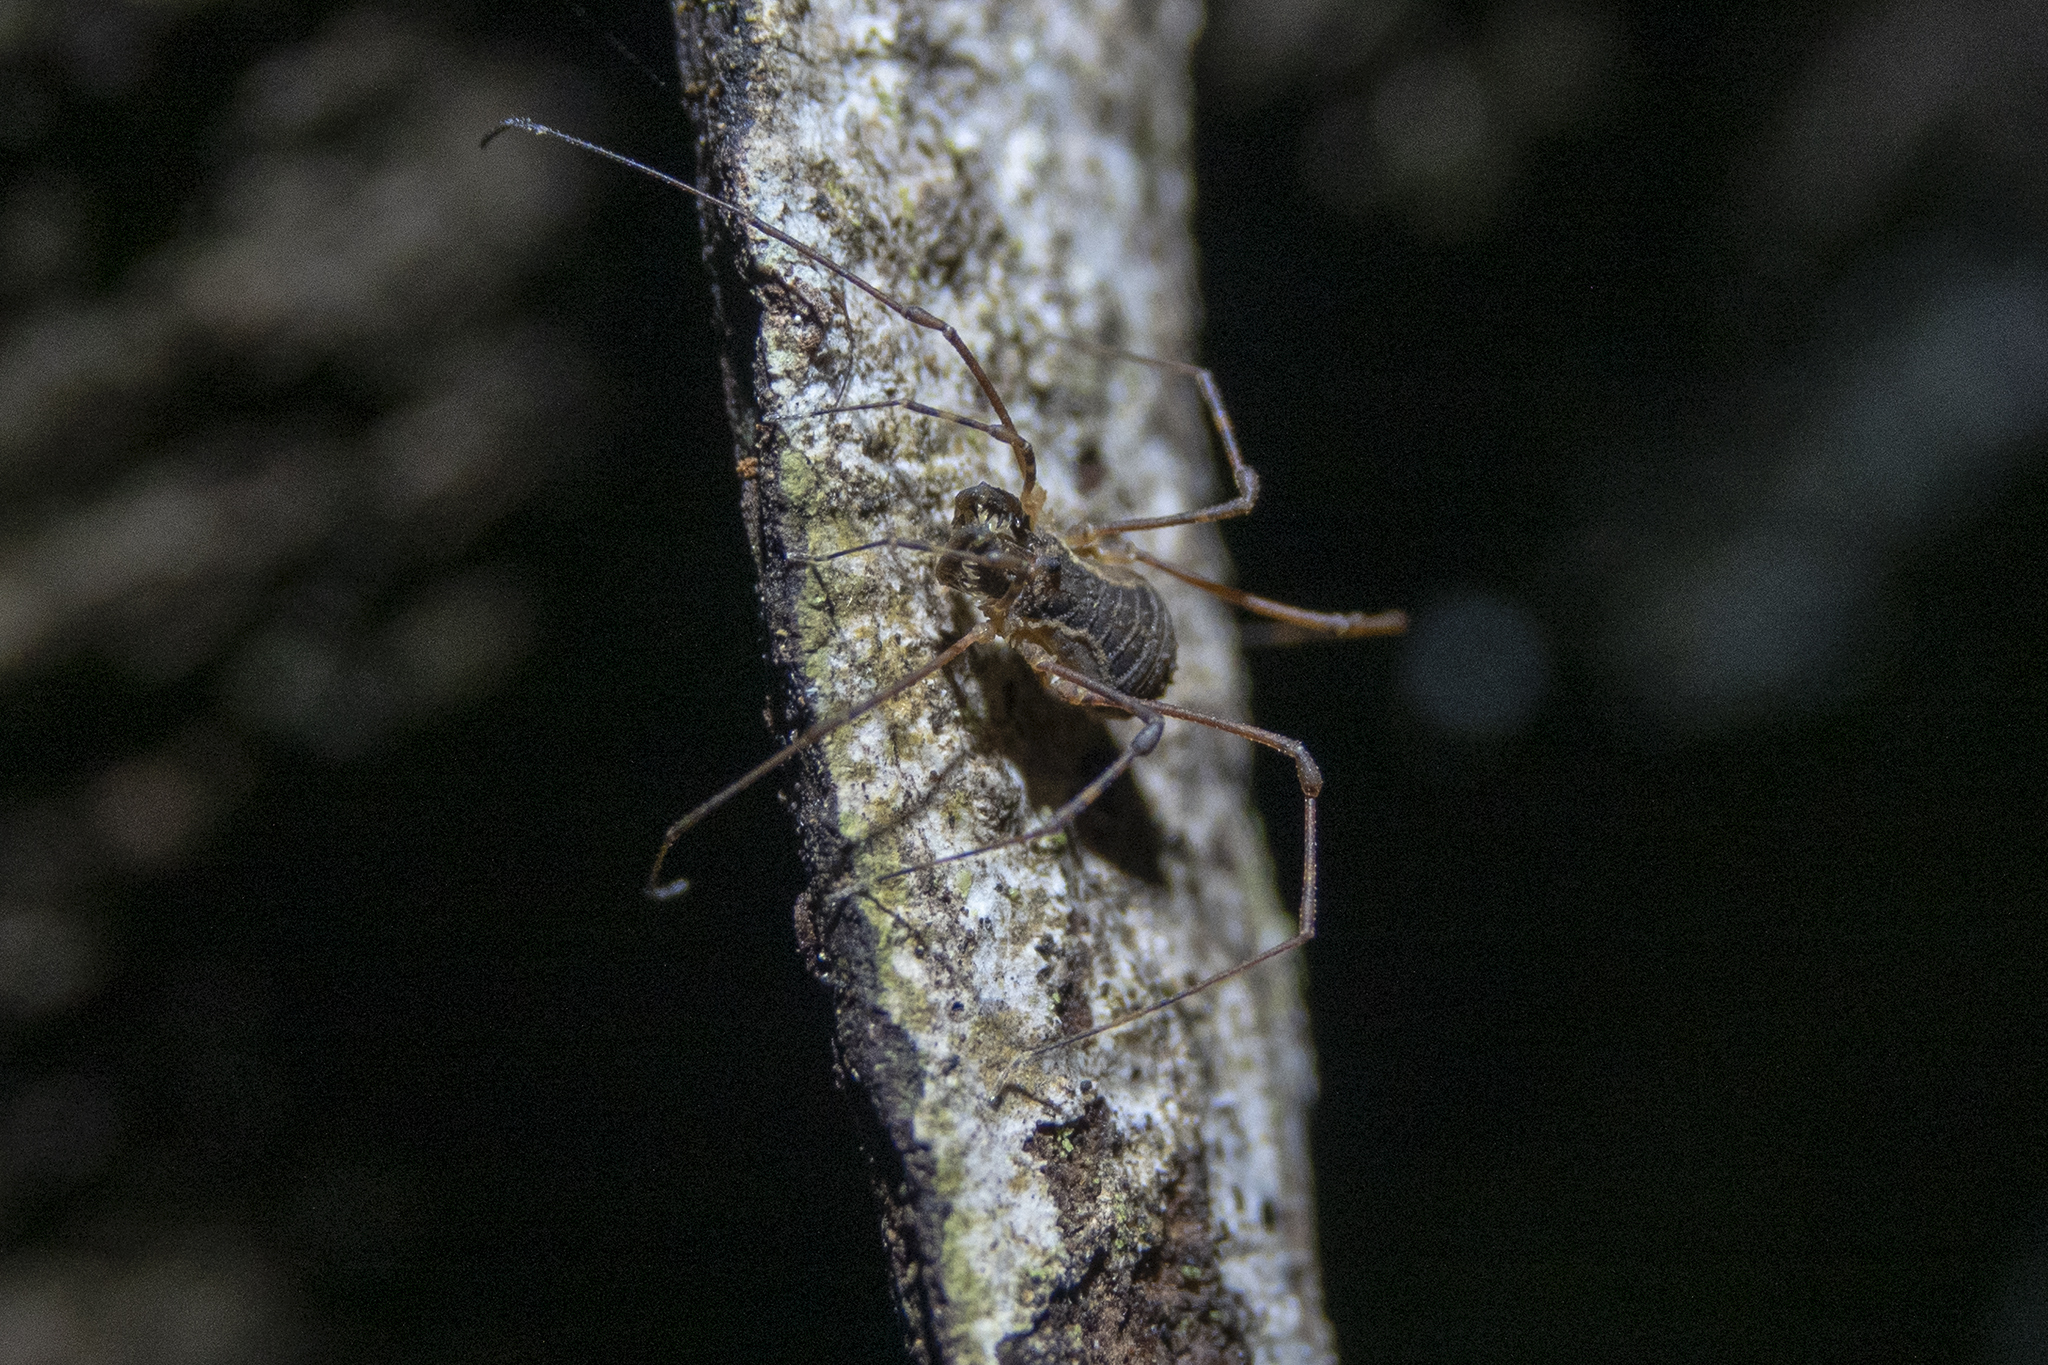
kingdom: Animalia
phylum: Arthropoda
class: Arachnida
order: Opiliones
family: Triaenonychidae
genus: Algidia
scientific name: Algidia interrupta
